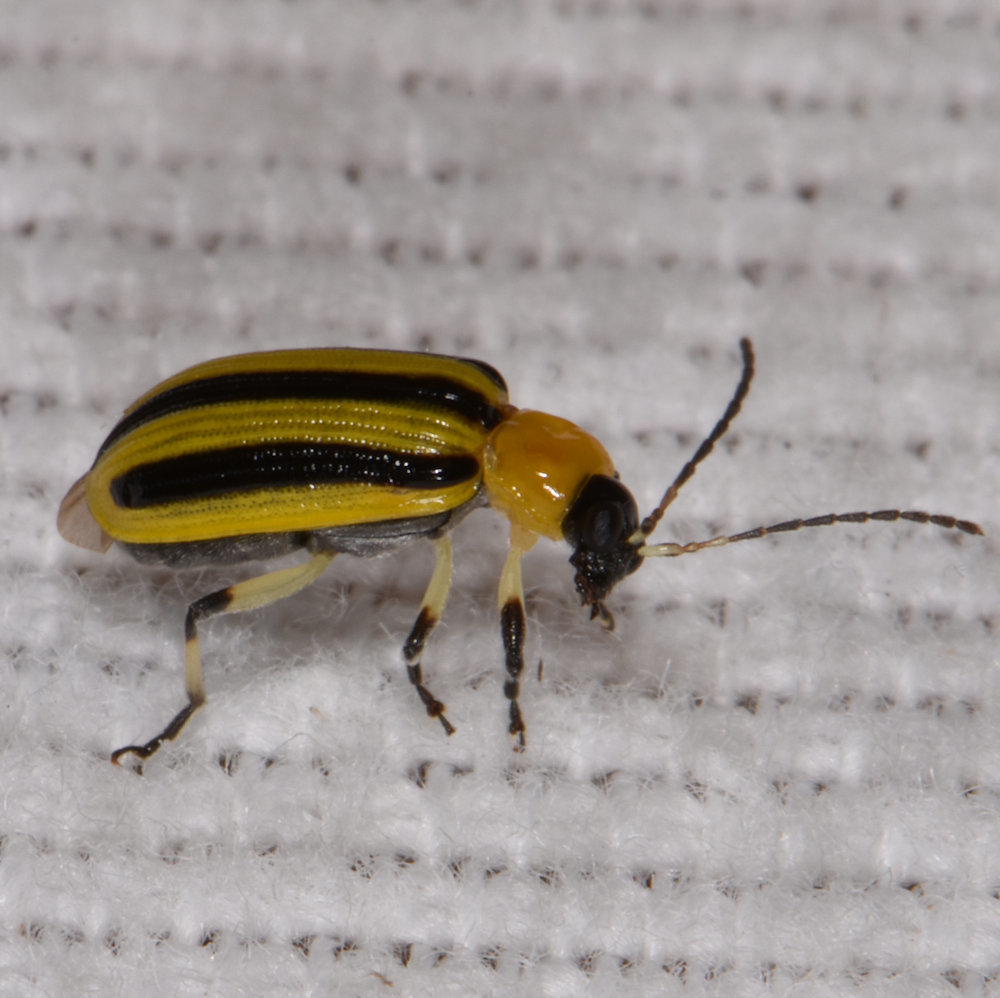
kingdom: Animalia
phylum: Arthropoda
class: Insecta
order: Coleoptera
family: Chrysomelidae
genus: Acalymma
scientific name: Acalymma vittatum
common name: Striped cucumber beetle
